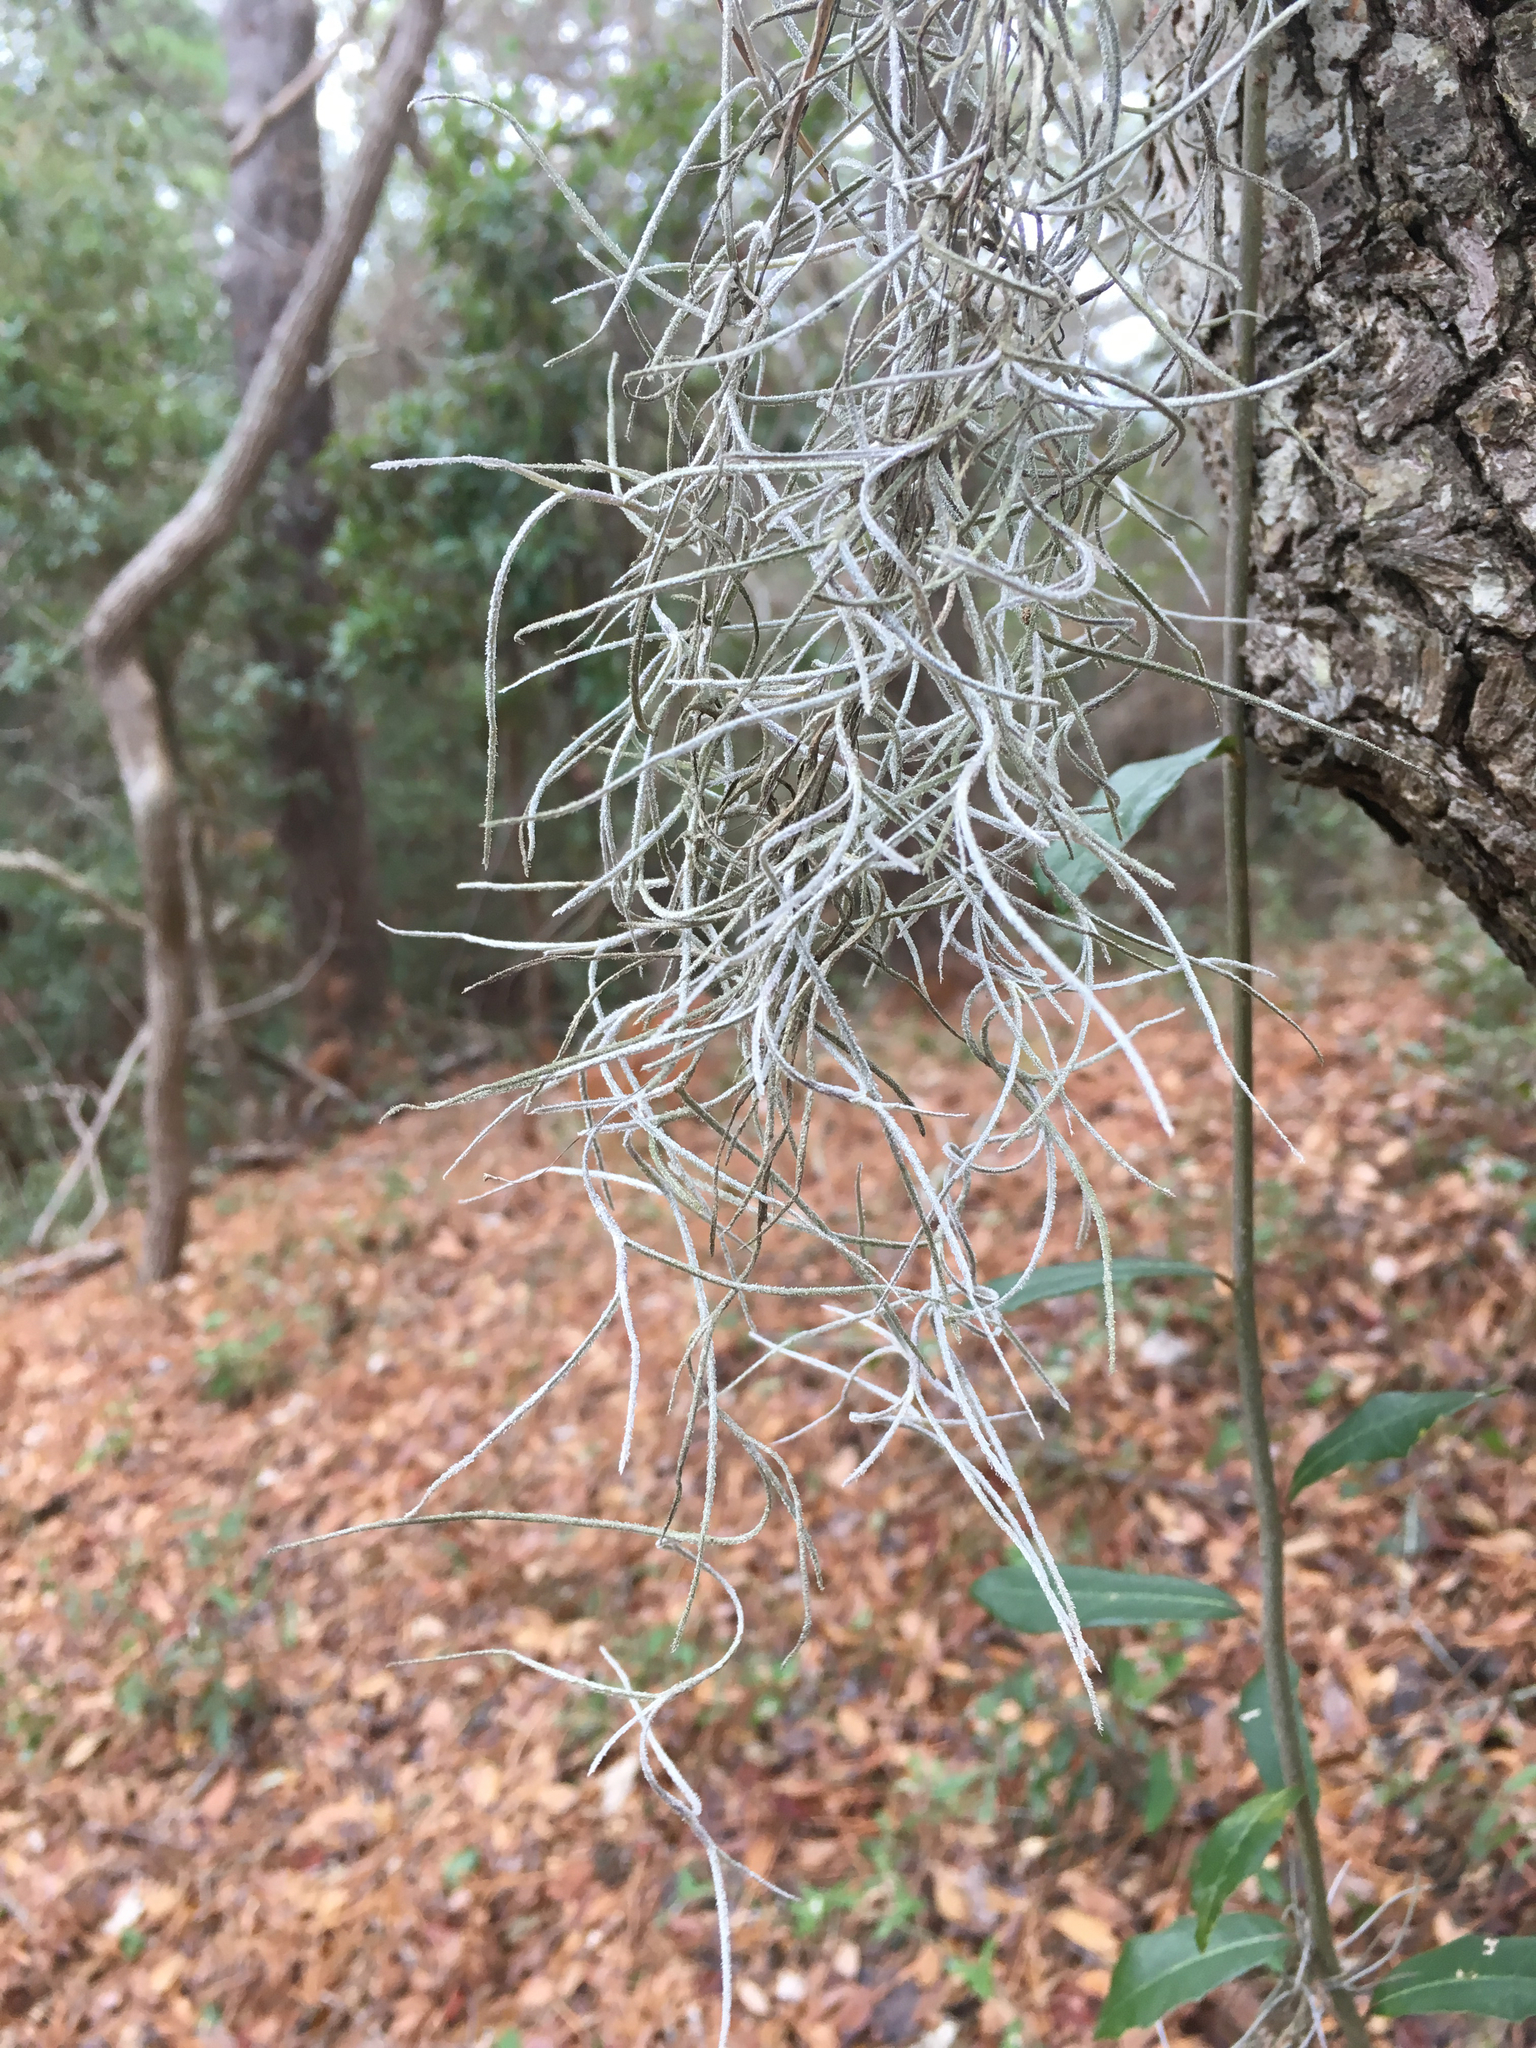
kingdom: Plantae
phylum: Tracheophyta
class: Liliopsida
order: Poales
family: Bromeliaceae
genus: Tillandsia
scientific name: Tillandsia usneoides
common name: Spanish moss
